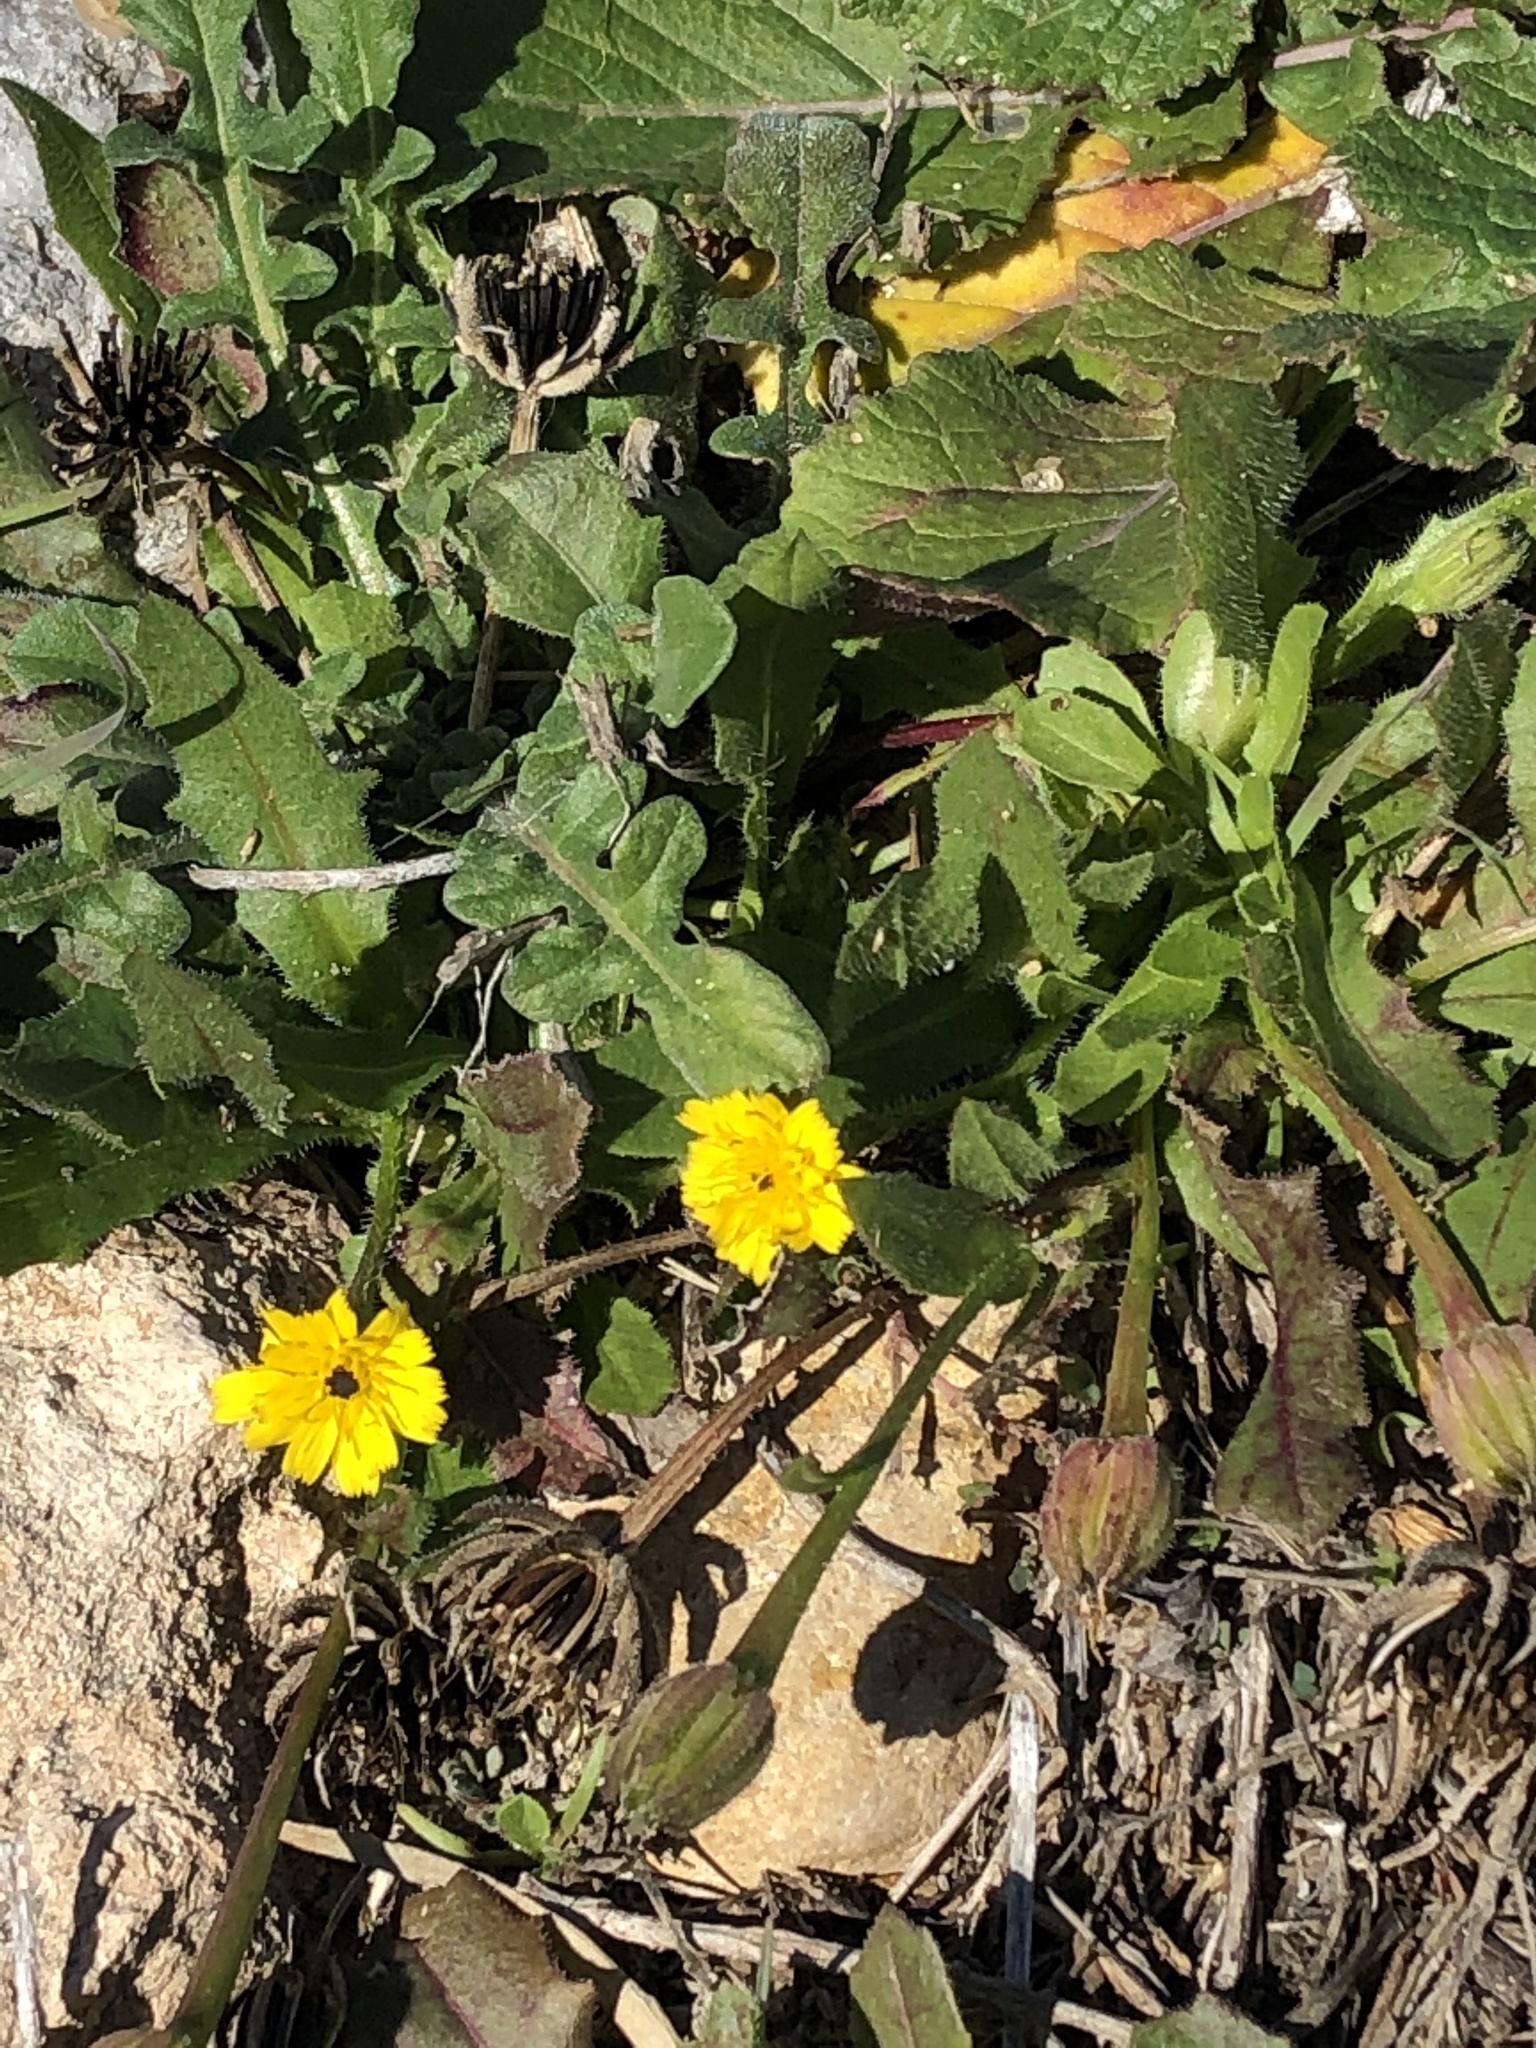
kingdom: Plantae
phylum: Tracheophyta
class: Magnoliopsida
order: Asterales
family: Asteraceae
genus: Hedypnois
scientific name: Hedypnois rhagadioloides
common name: Cretan weed
